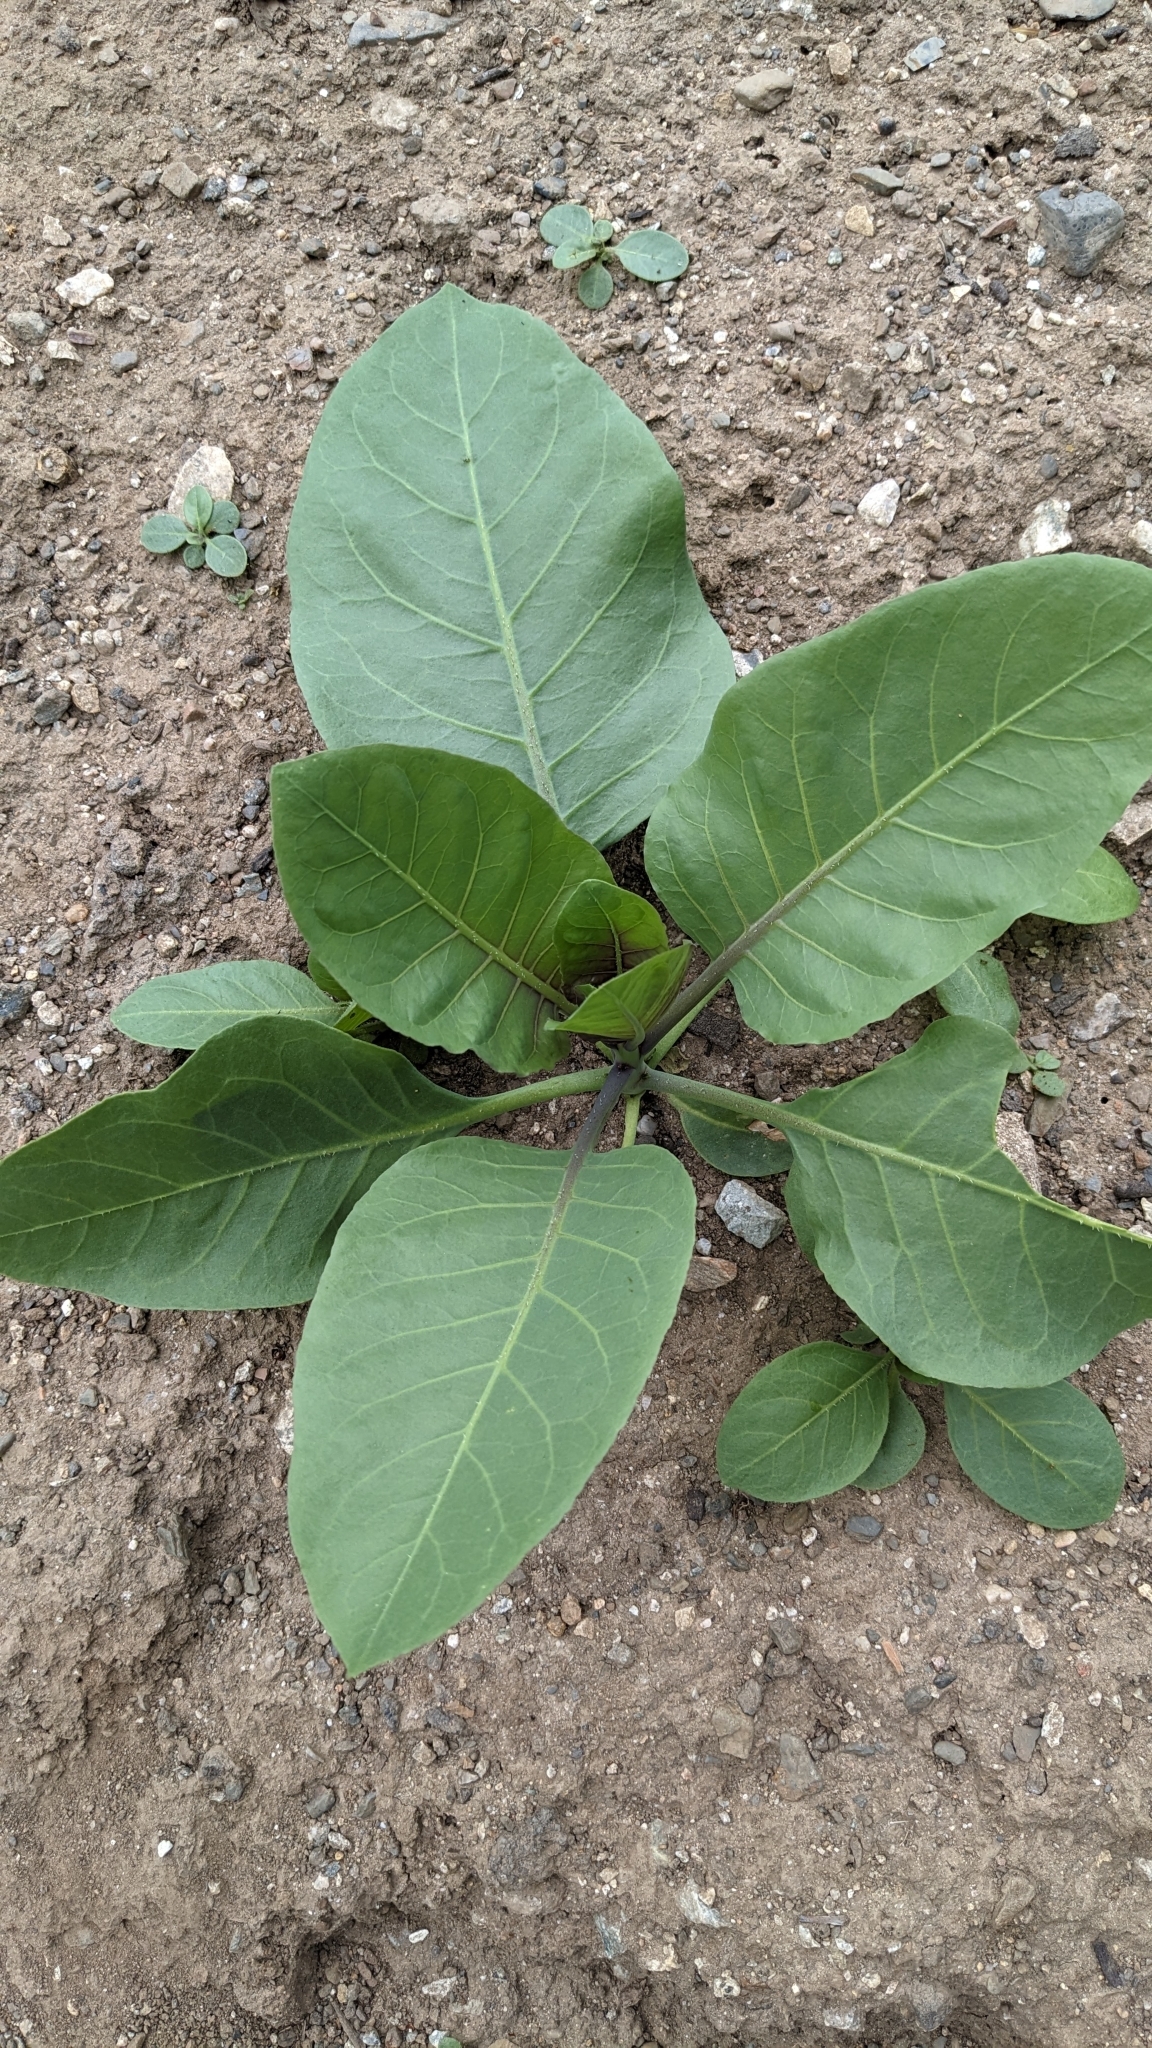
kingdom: Plantae
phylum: Tracheophyta
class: Magnoliopsida
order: Solanales
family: Solanaceae
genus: Nicotiana
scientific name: Nicotiana glauca
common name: Tree tobacco
